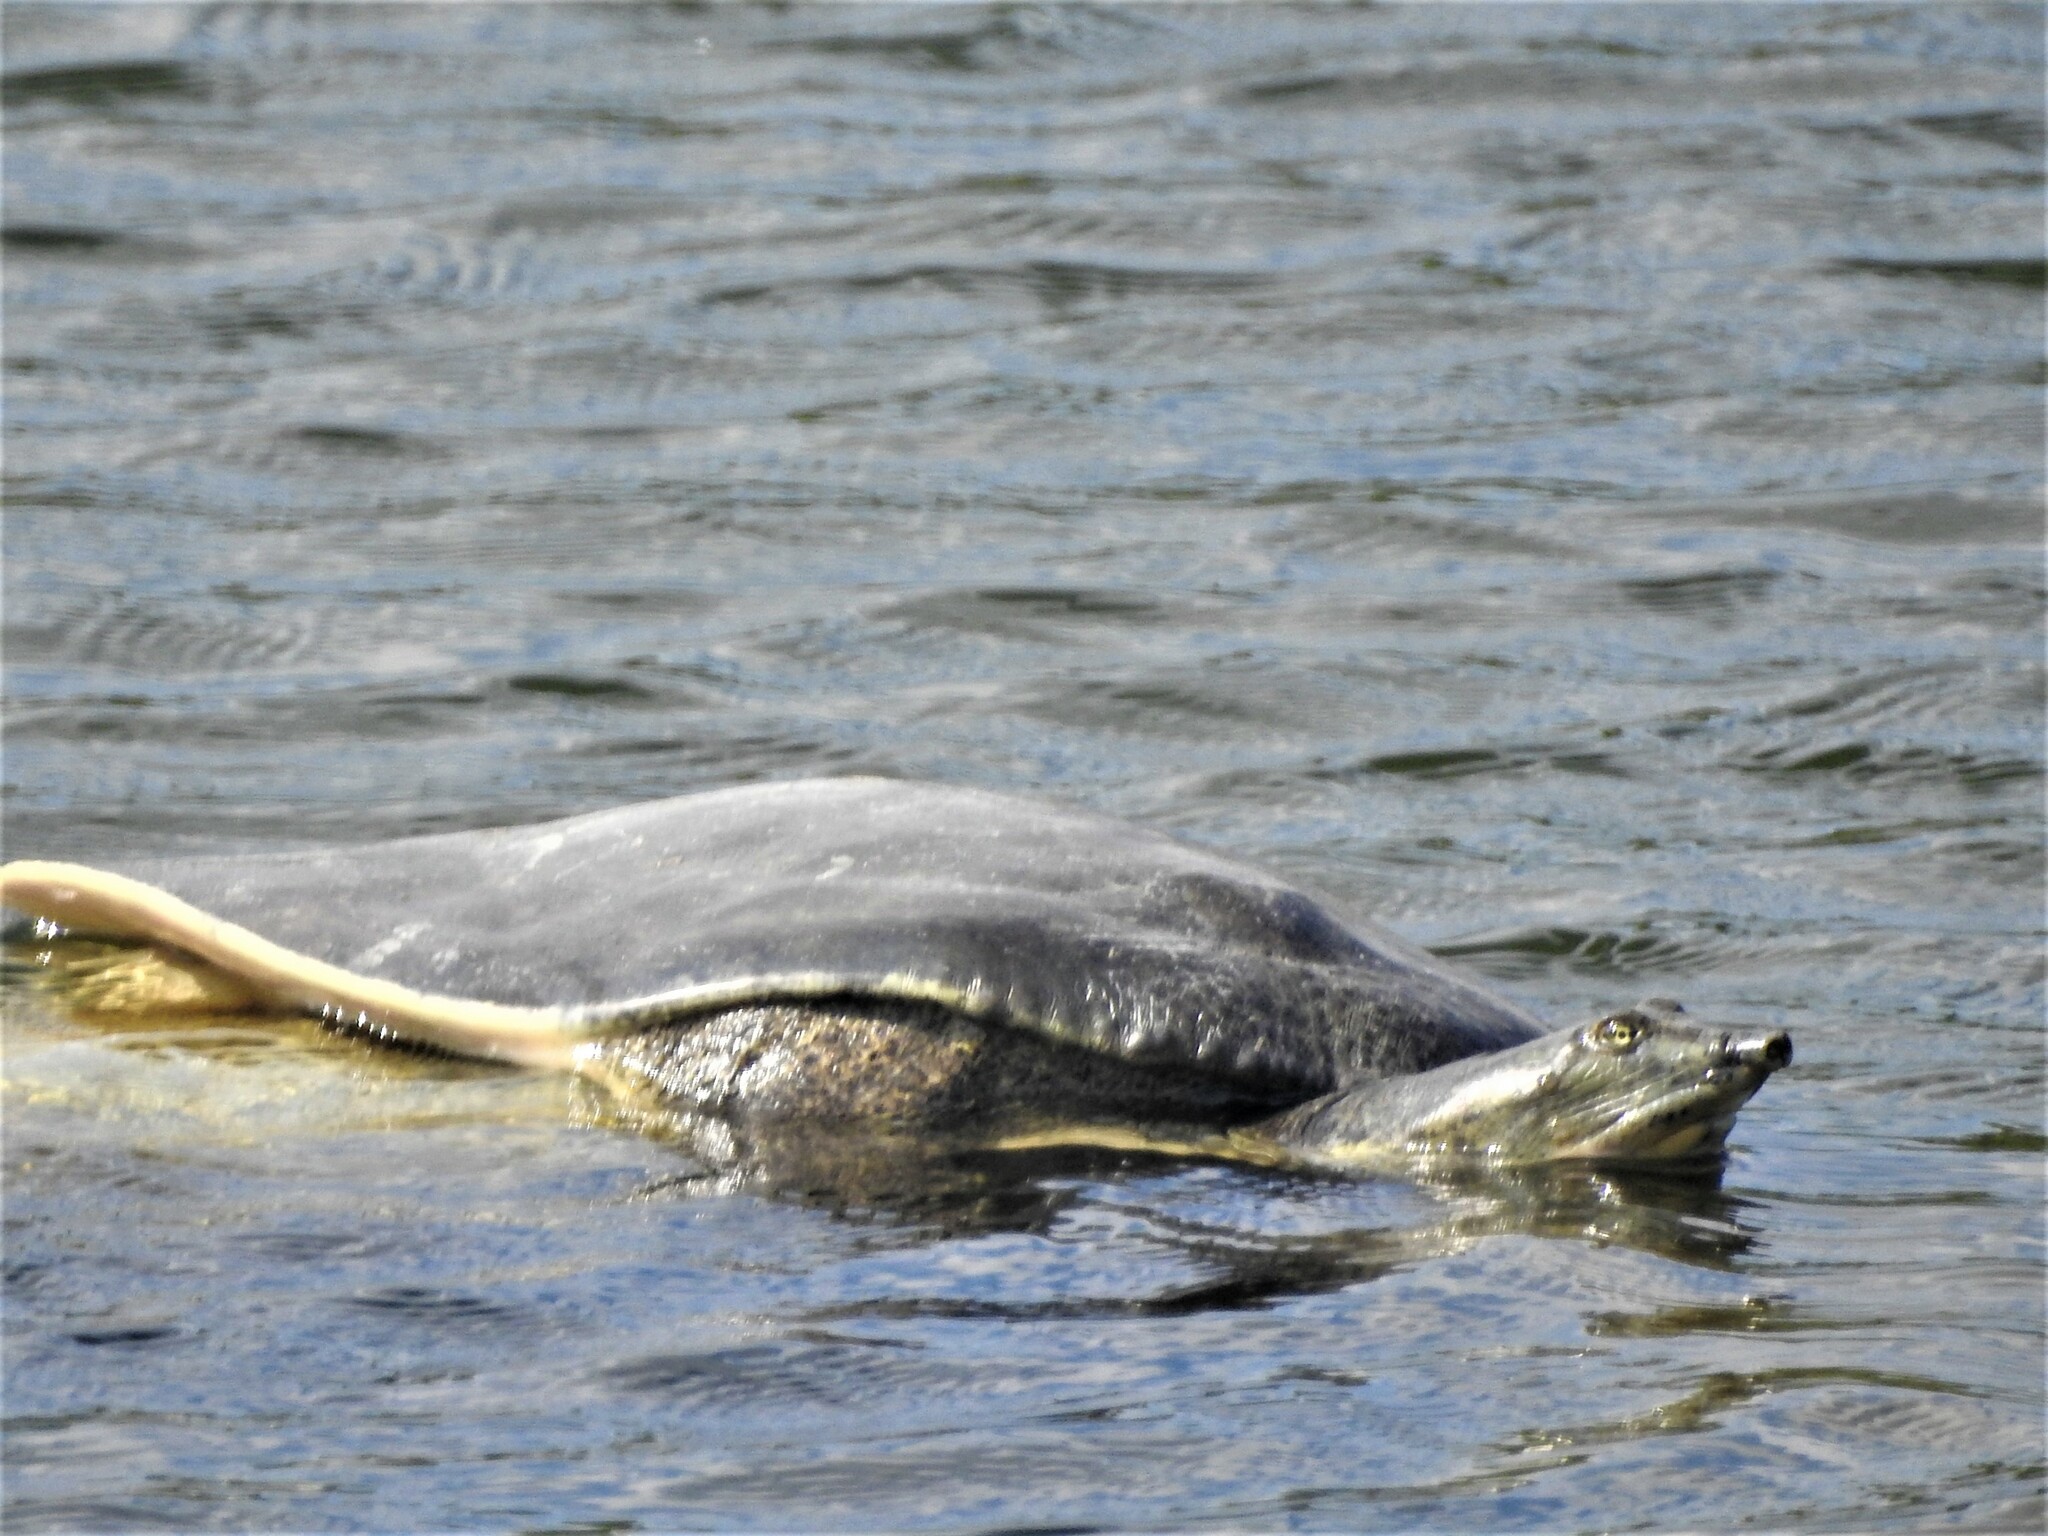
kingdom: Animalia
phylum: Chordata
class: Testudines
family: Trionychidae
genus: Apalone
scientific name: Apalone spinifera
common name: Spiny softshell turtle
